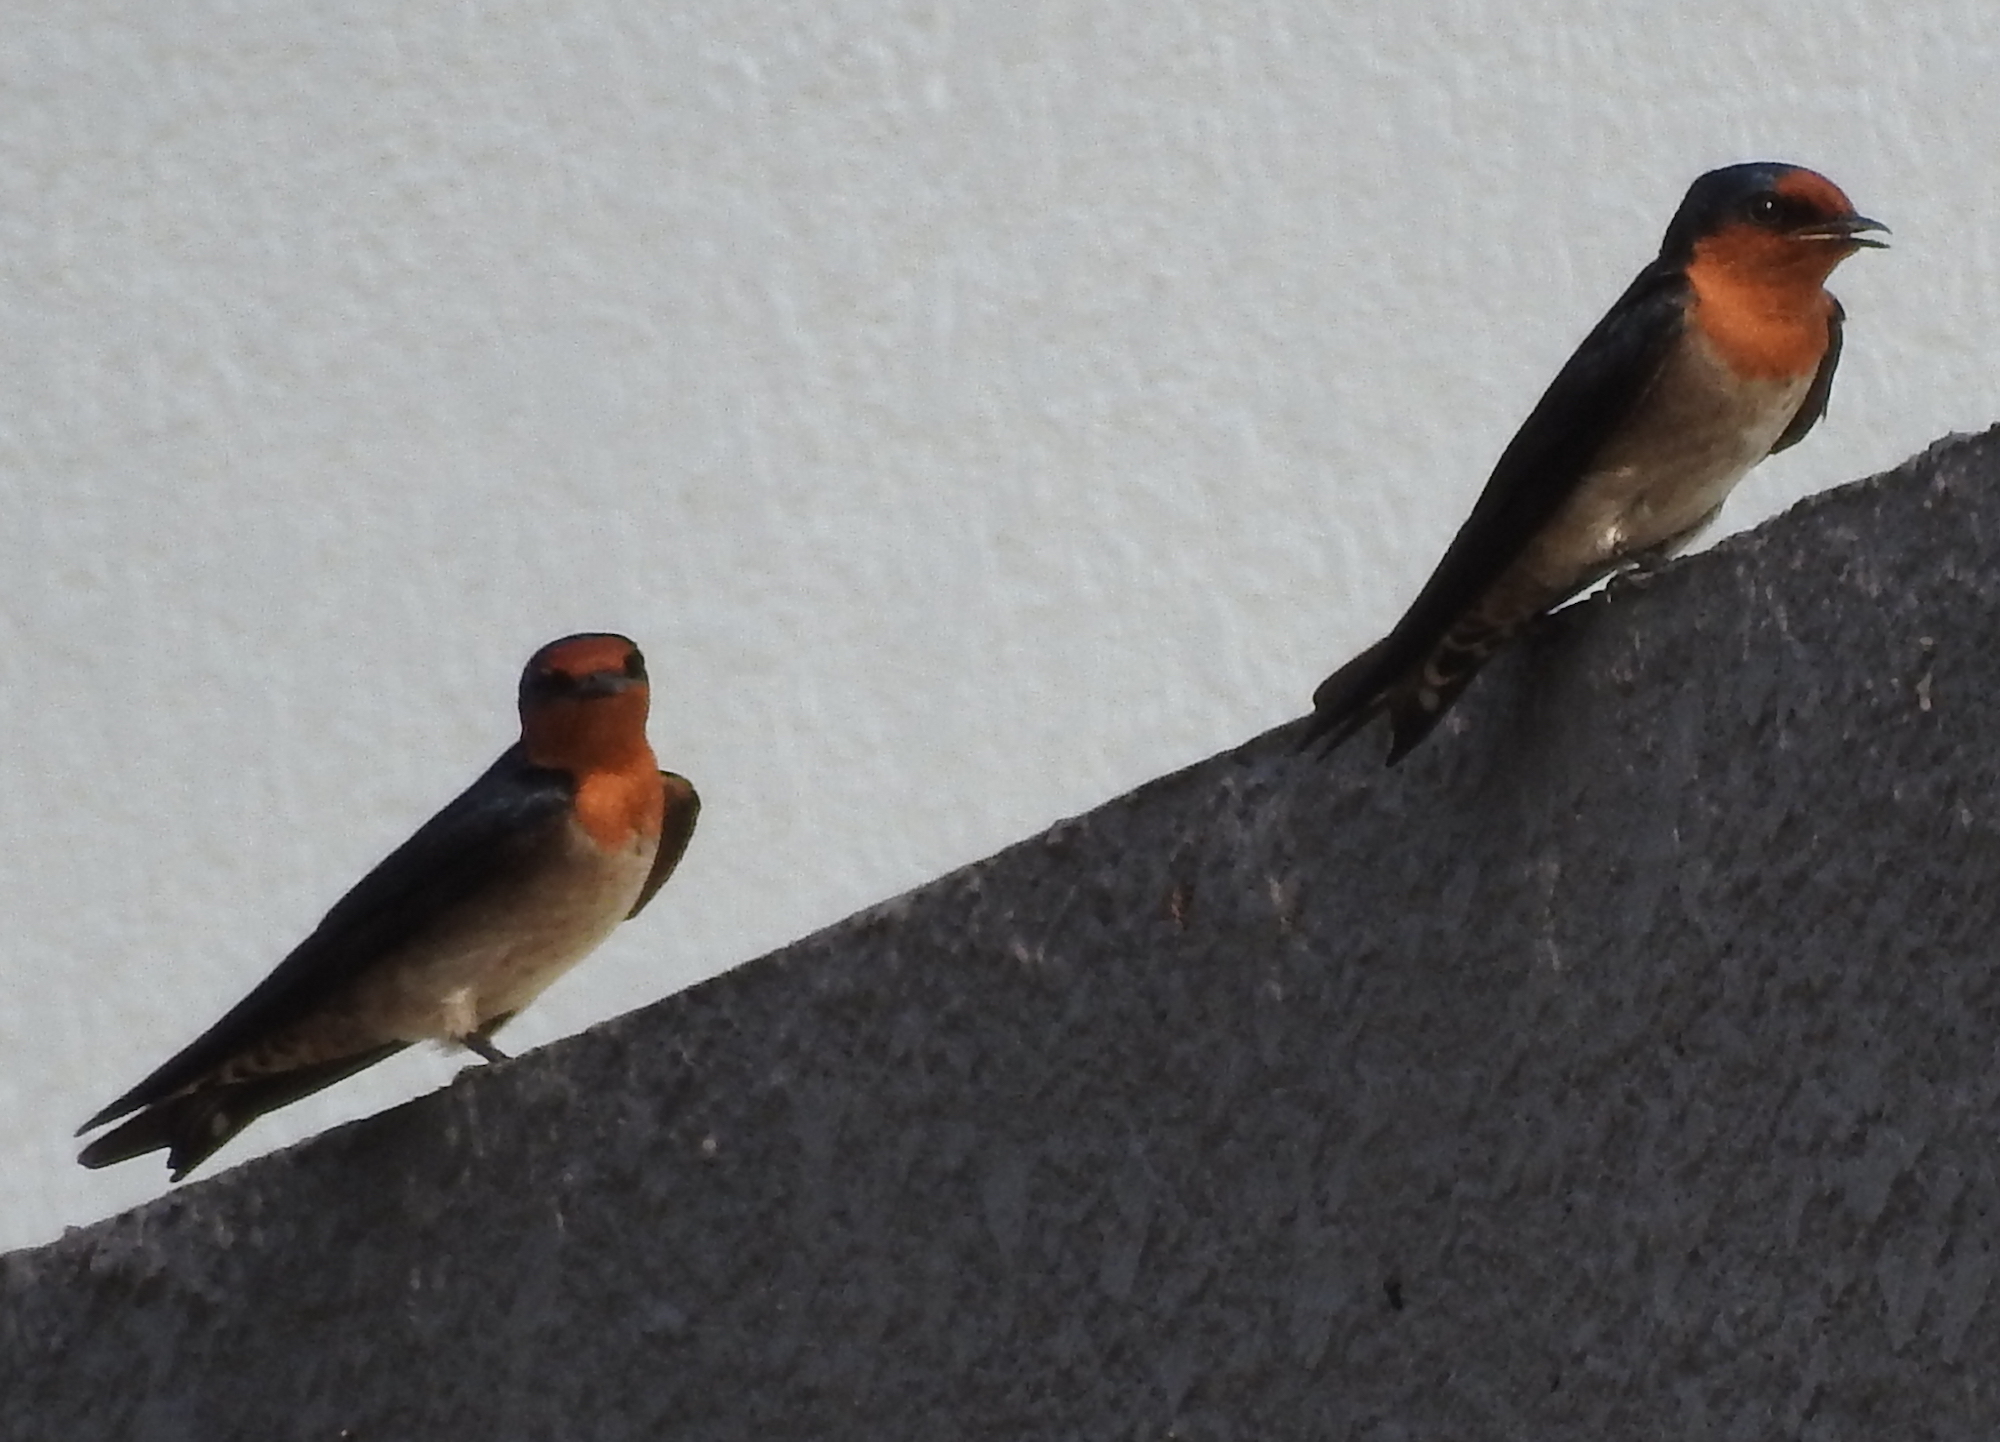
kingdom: Animalia
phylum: Chordata
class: Aves
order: Passeriformes
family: Hirundinidae
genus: Hirundo
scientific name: Hirundo tahitica
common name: Pacific swallow
